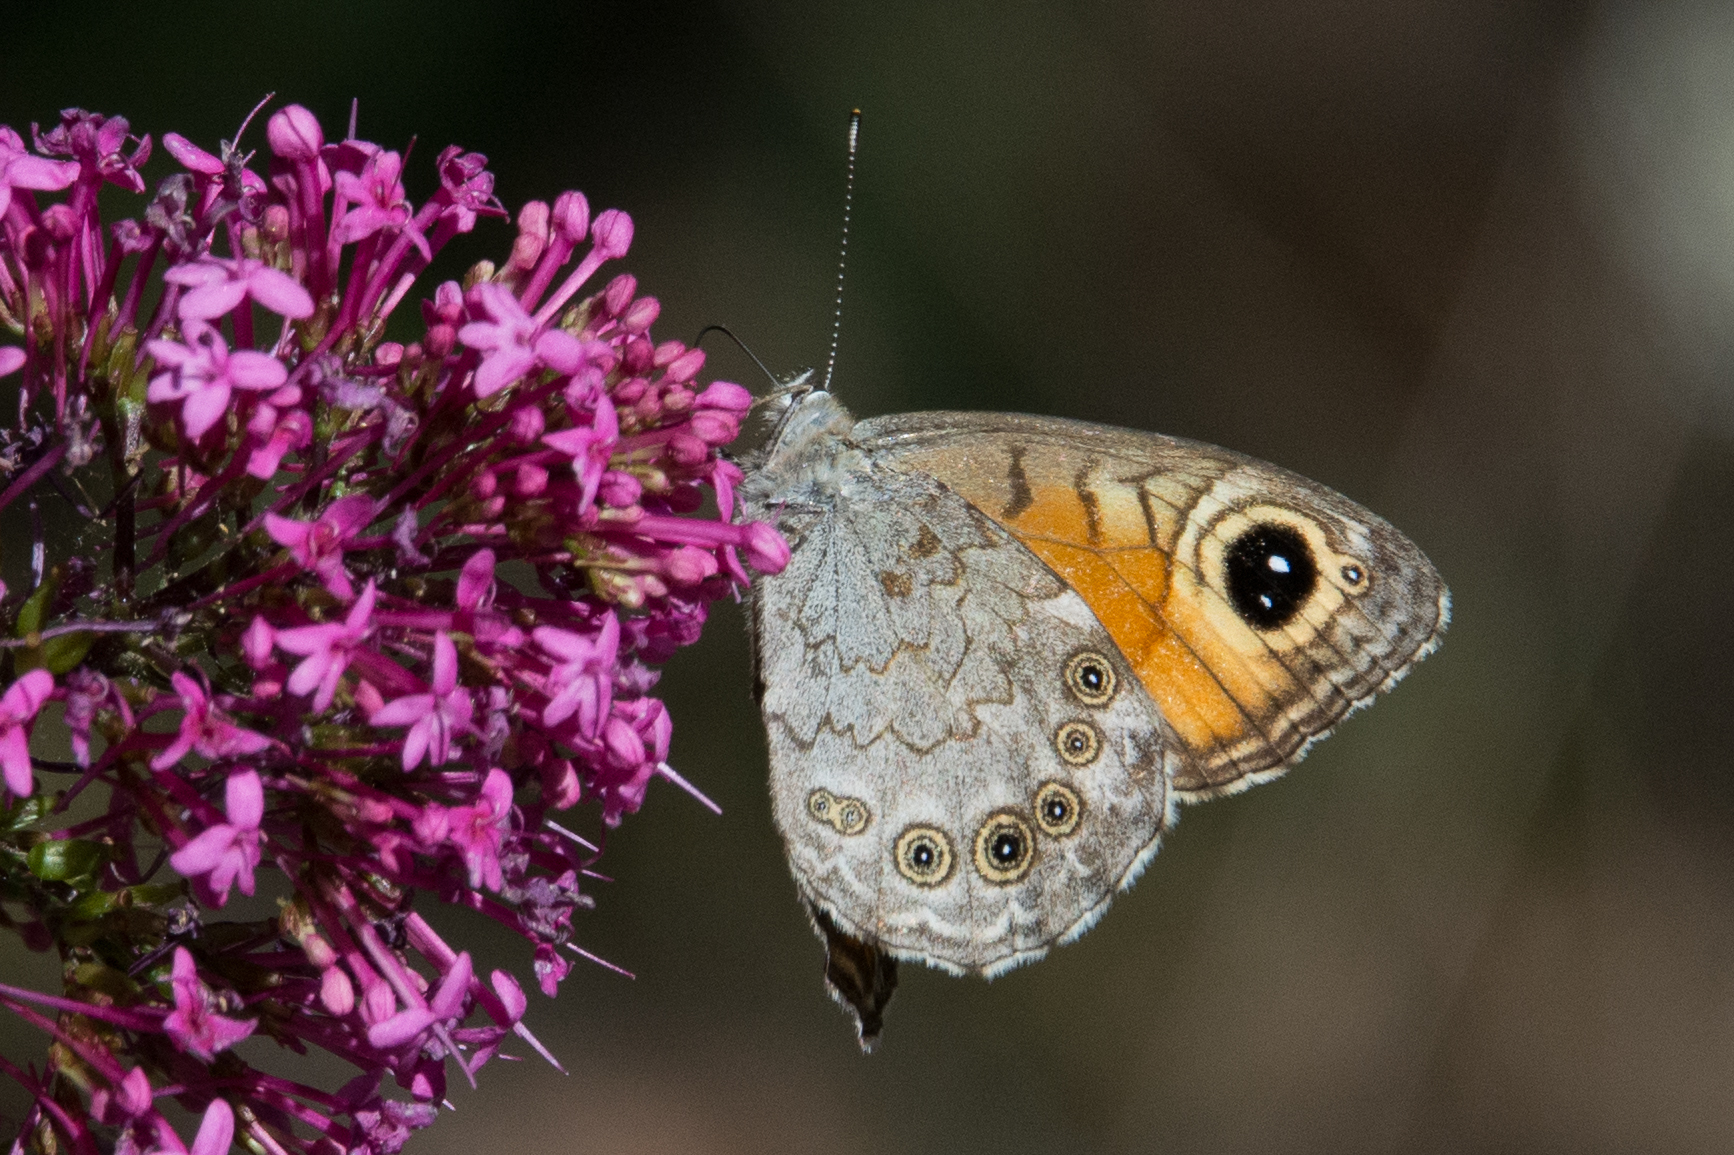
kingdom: Animalia
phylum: Arthropoda
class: Insecta
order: Lepidoptera
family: Nymphalidae
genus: Pararge
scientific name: Pararge Lasiommata maera
